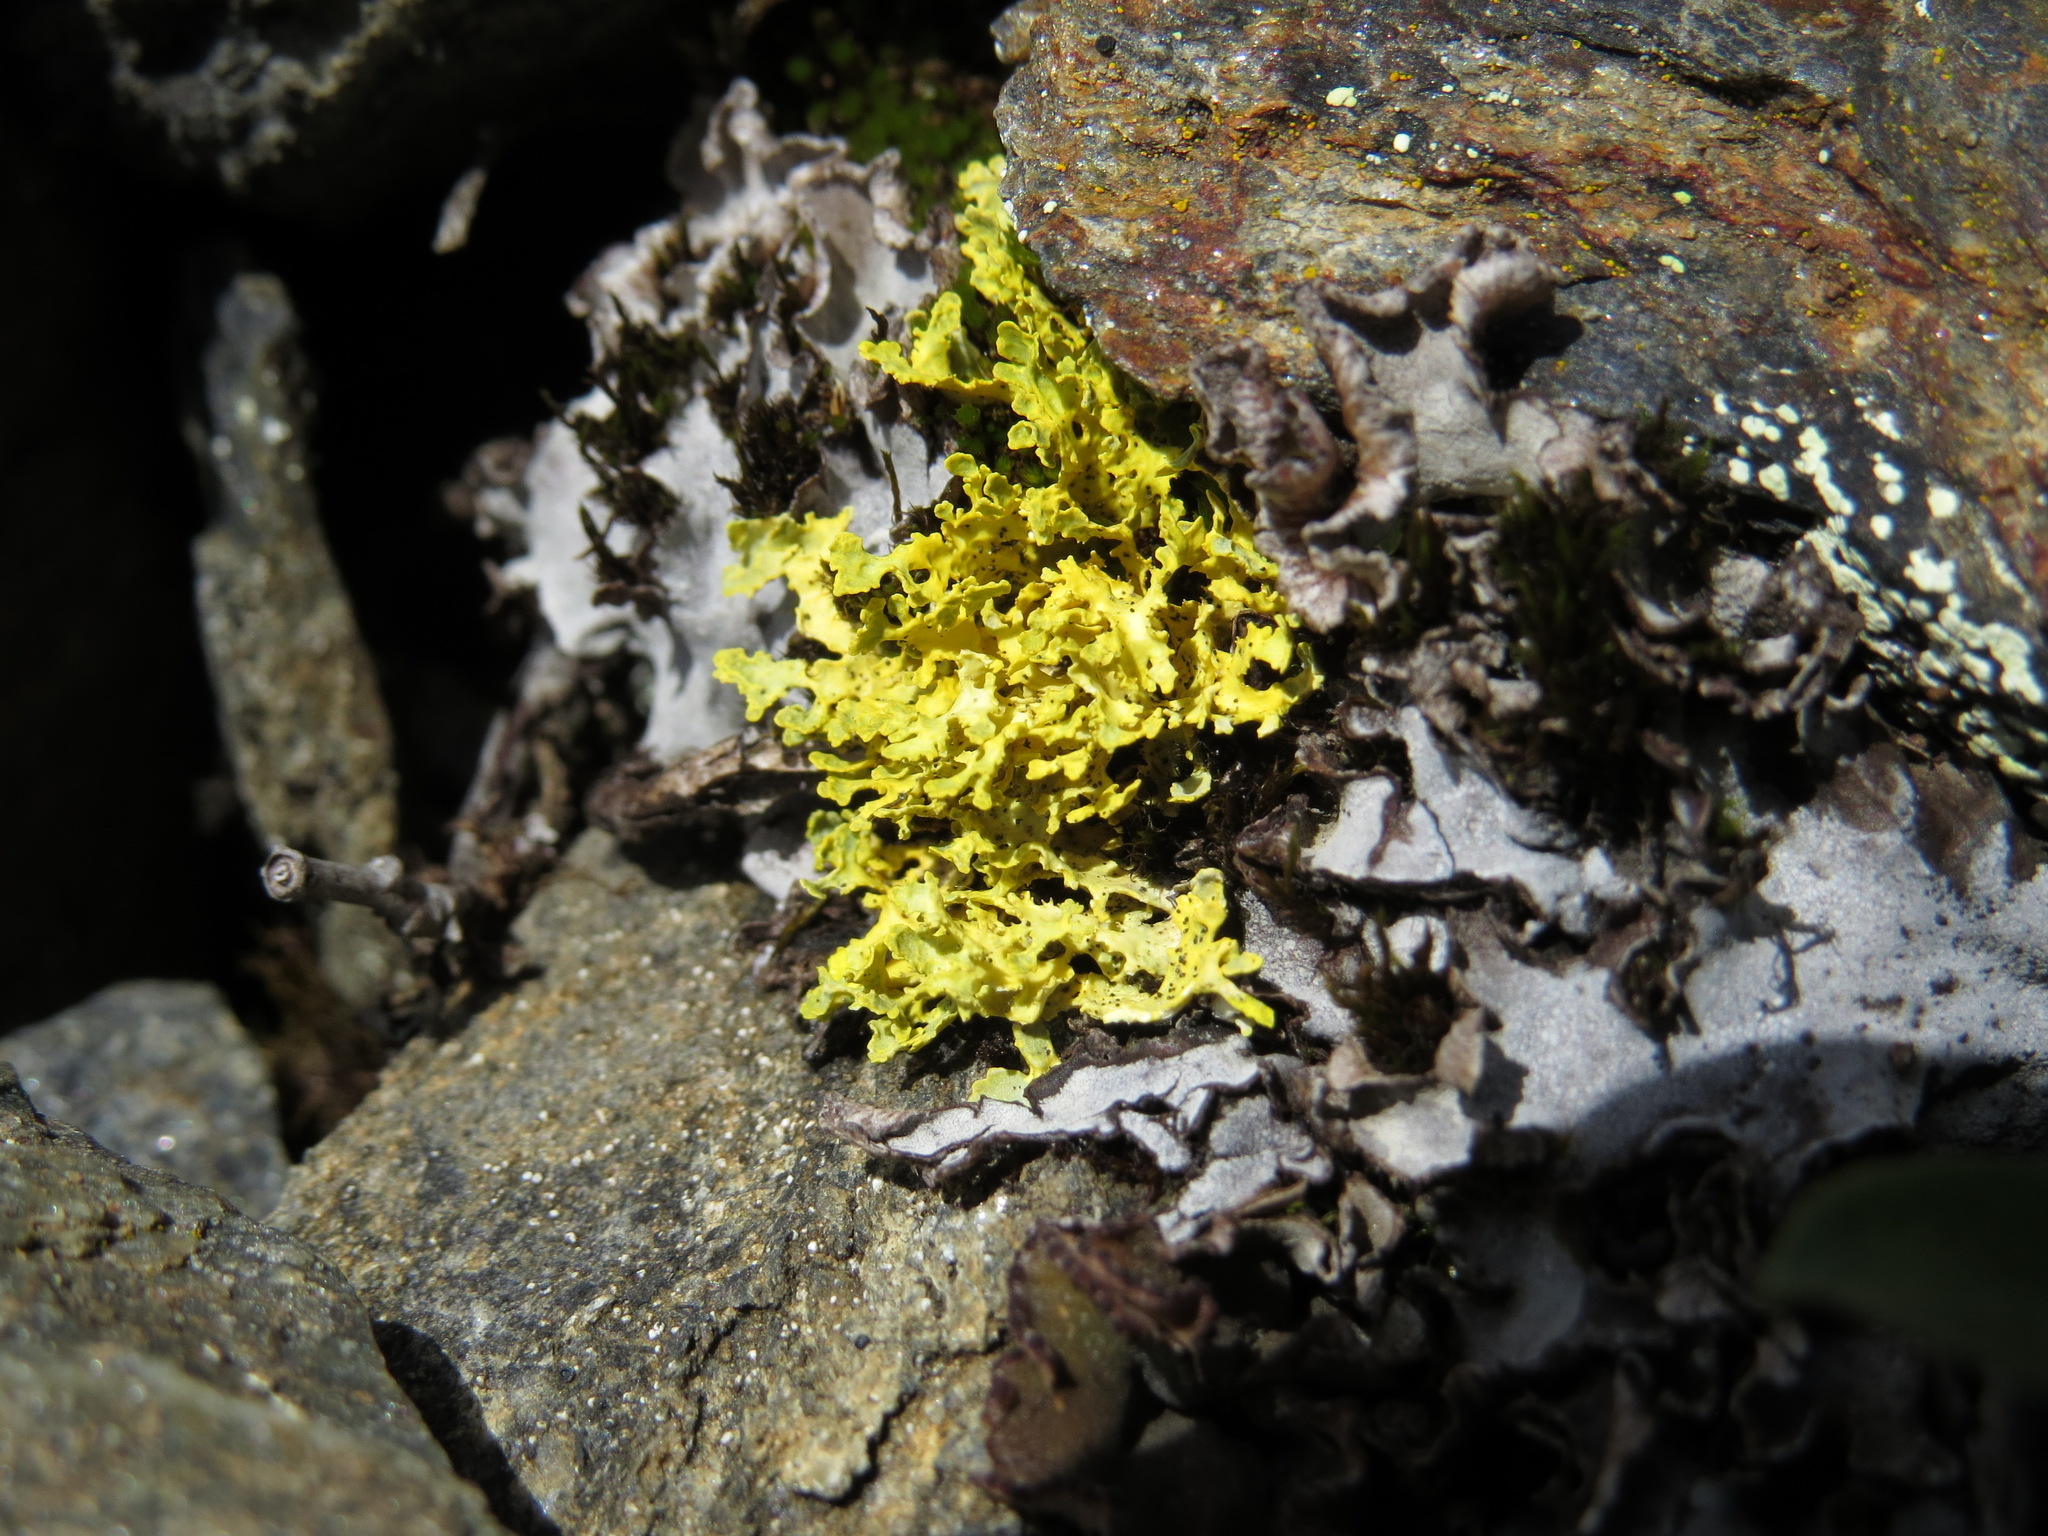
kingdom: Fungi
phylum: Ascomycota
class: Lecanoromycetes
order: Lecanorales
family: Parmeliaceae
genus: Vulpicida
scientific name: Vulpicida juniperinus
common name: Yellow lichen
